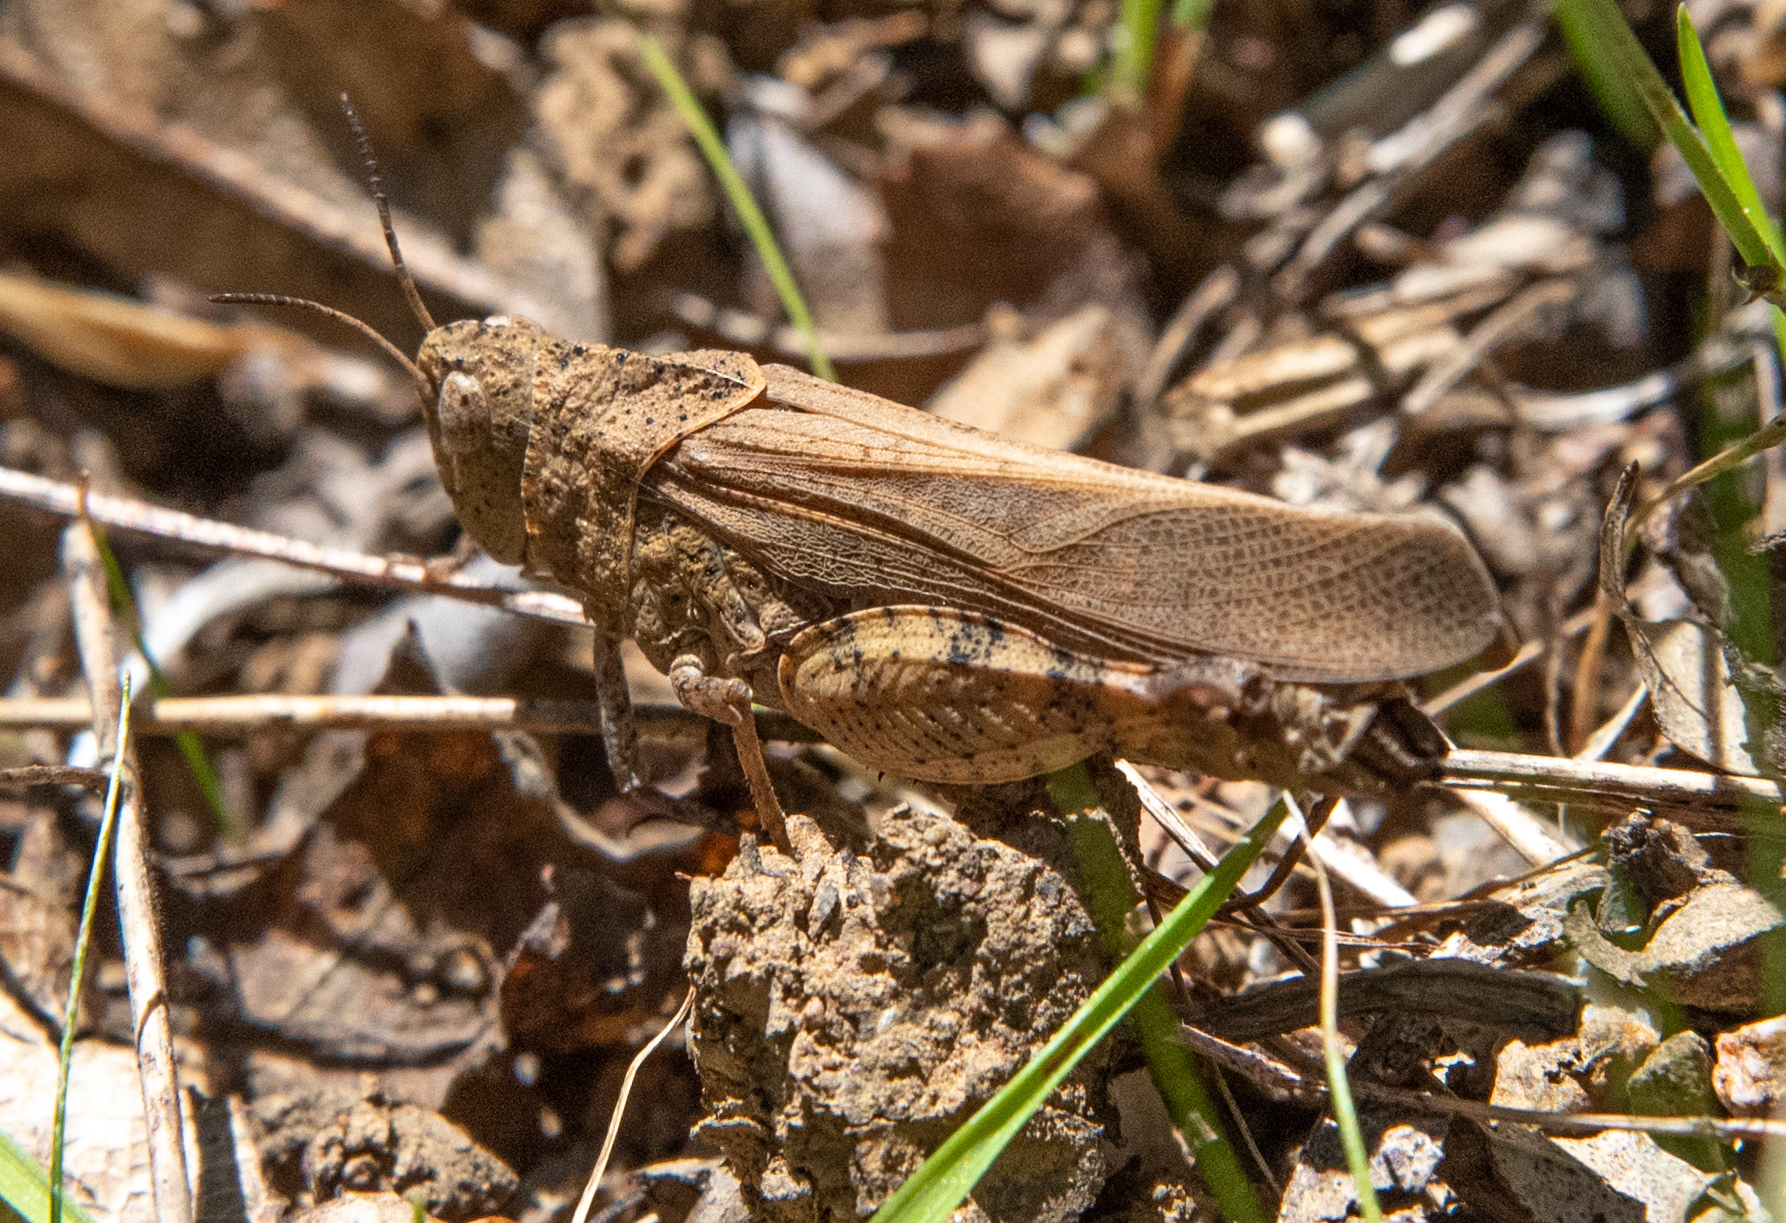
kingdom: Animalia
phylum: Arthropoda
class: Insecta
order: Orthoptera
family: Acrididae
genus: Arphia
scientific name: Arphia behrensi
